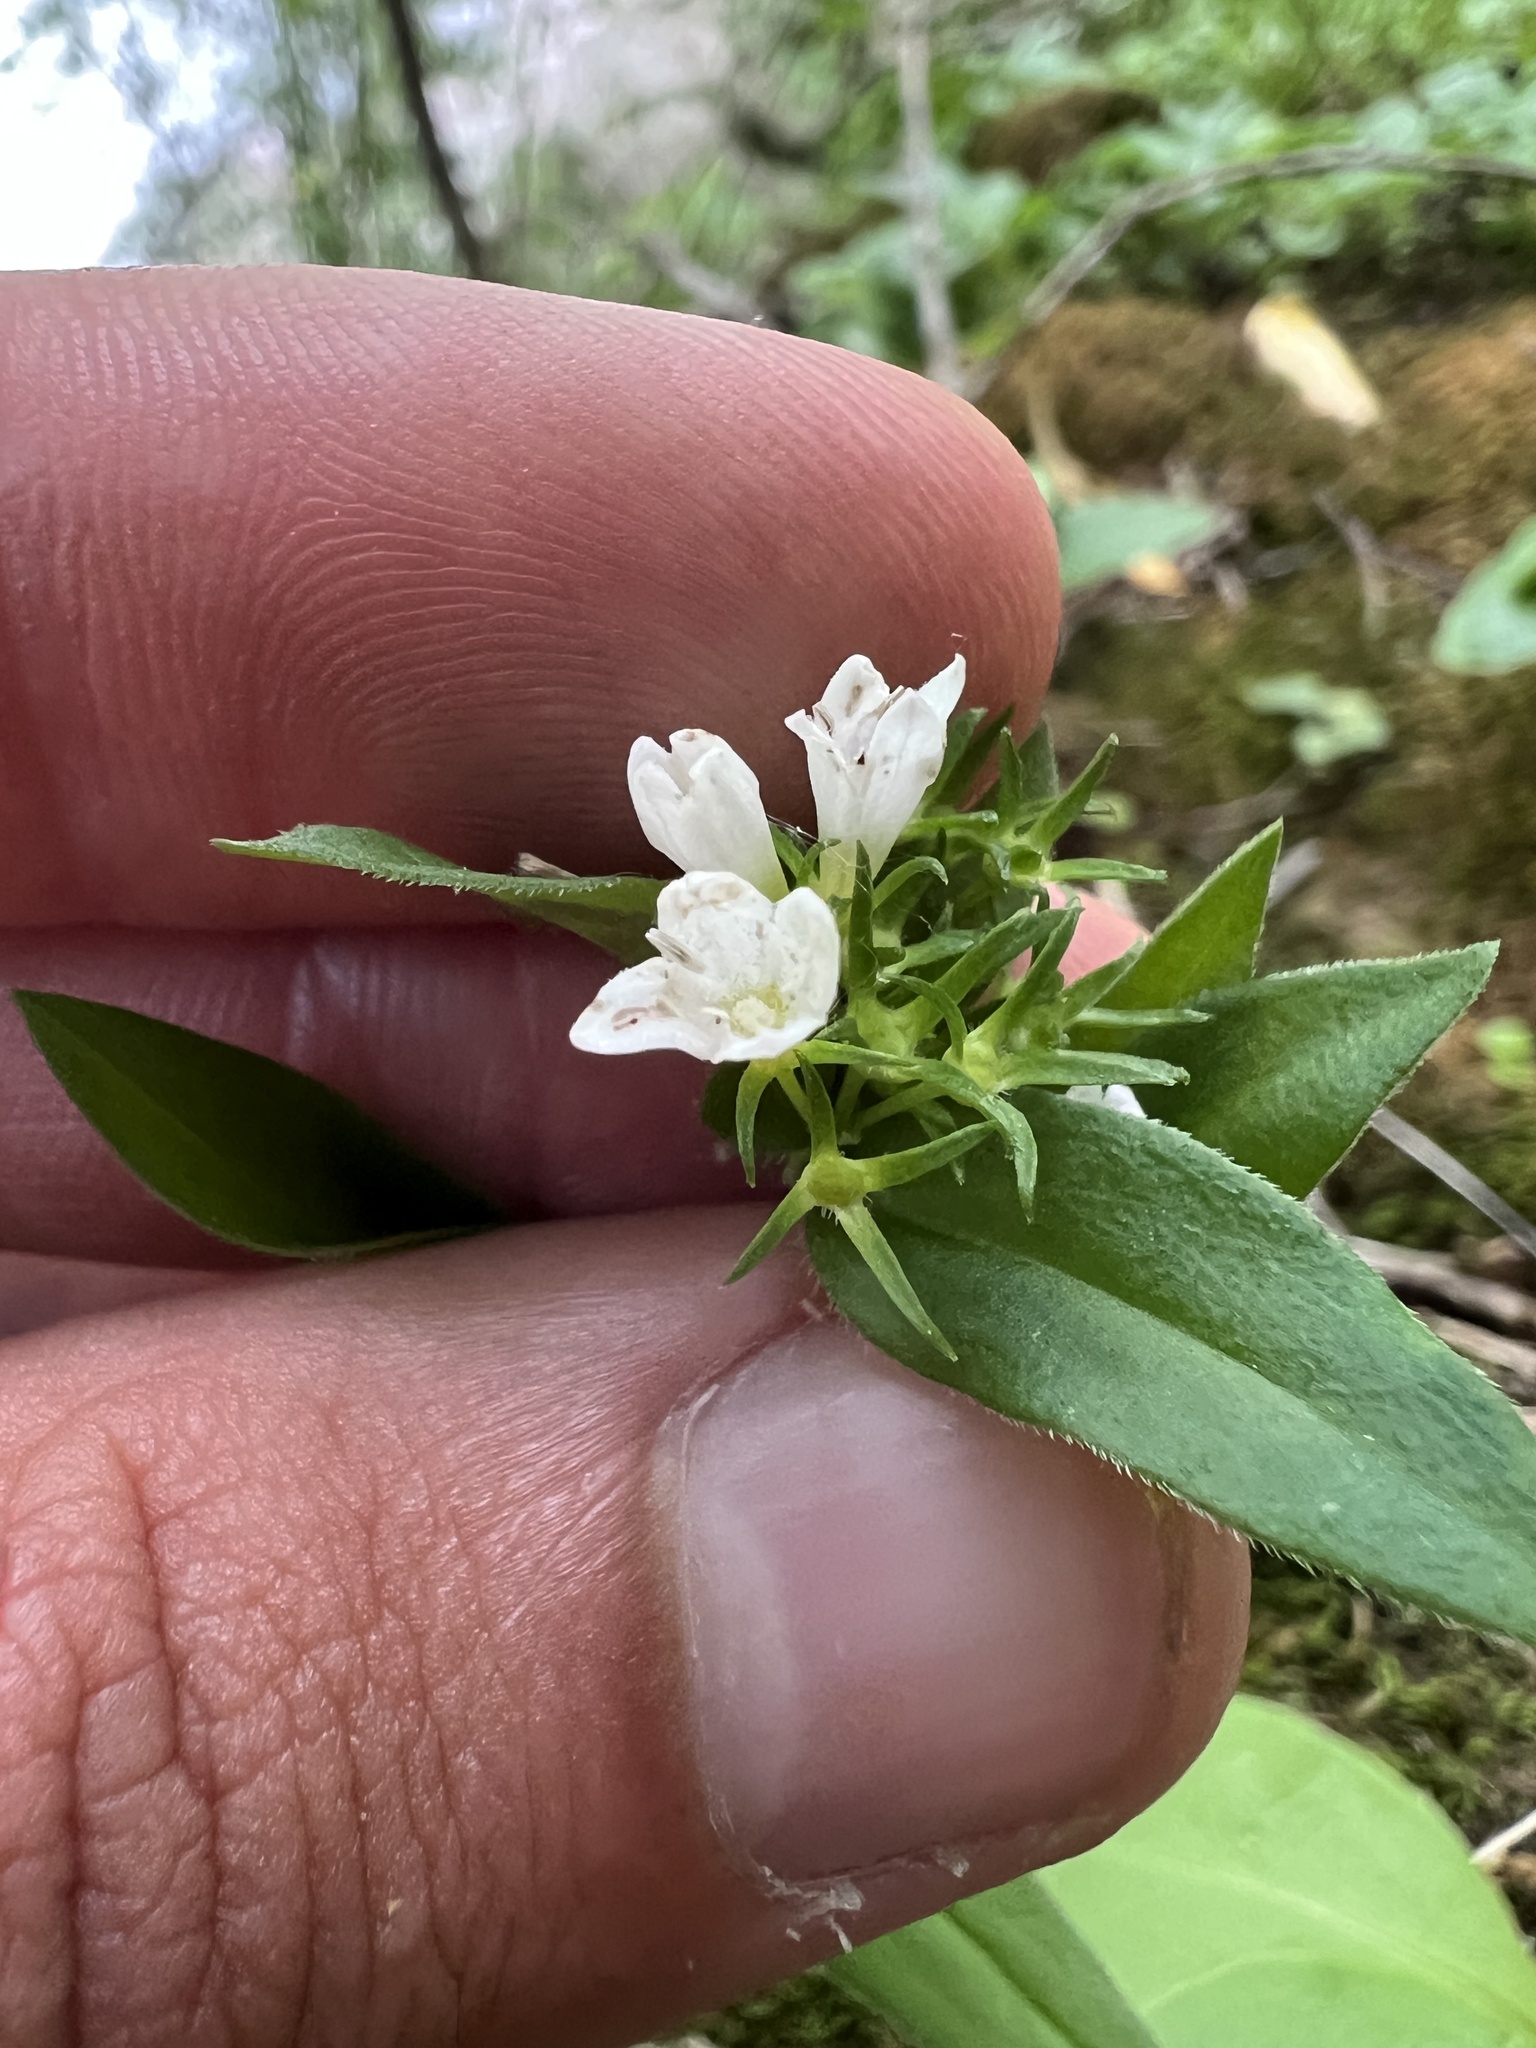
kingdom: Plantae
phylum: Tracheophyta
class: Magnoliopsida
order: Gentianales
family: Rubiaceae
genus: Houstonia
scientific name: Houstonia purpurea
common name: Summer bluet
